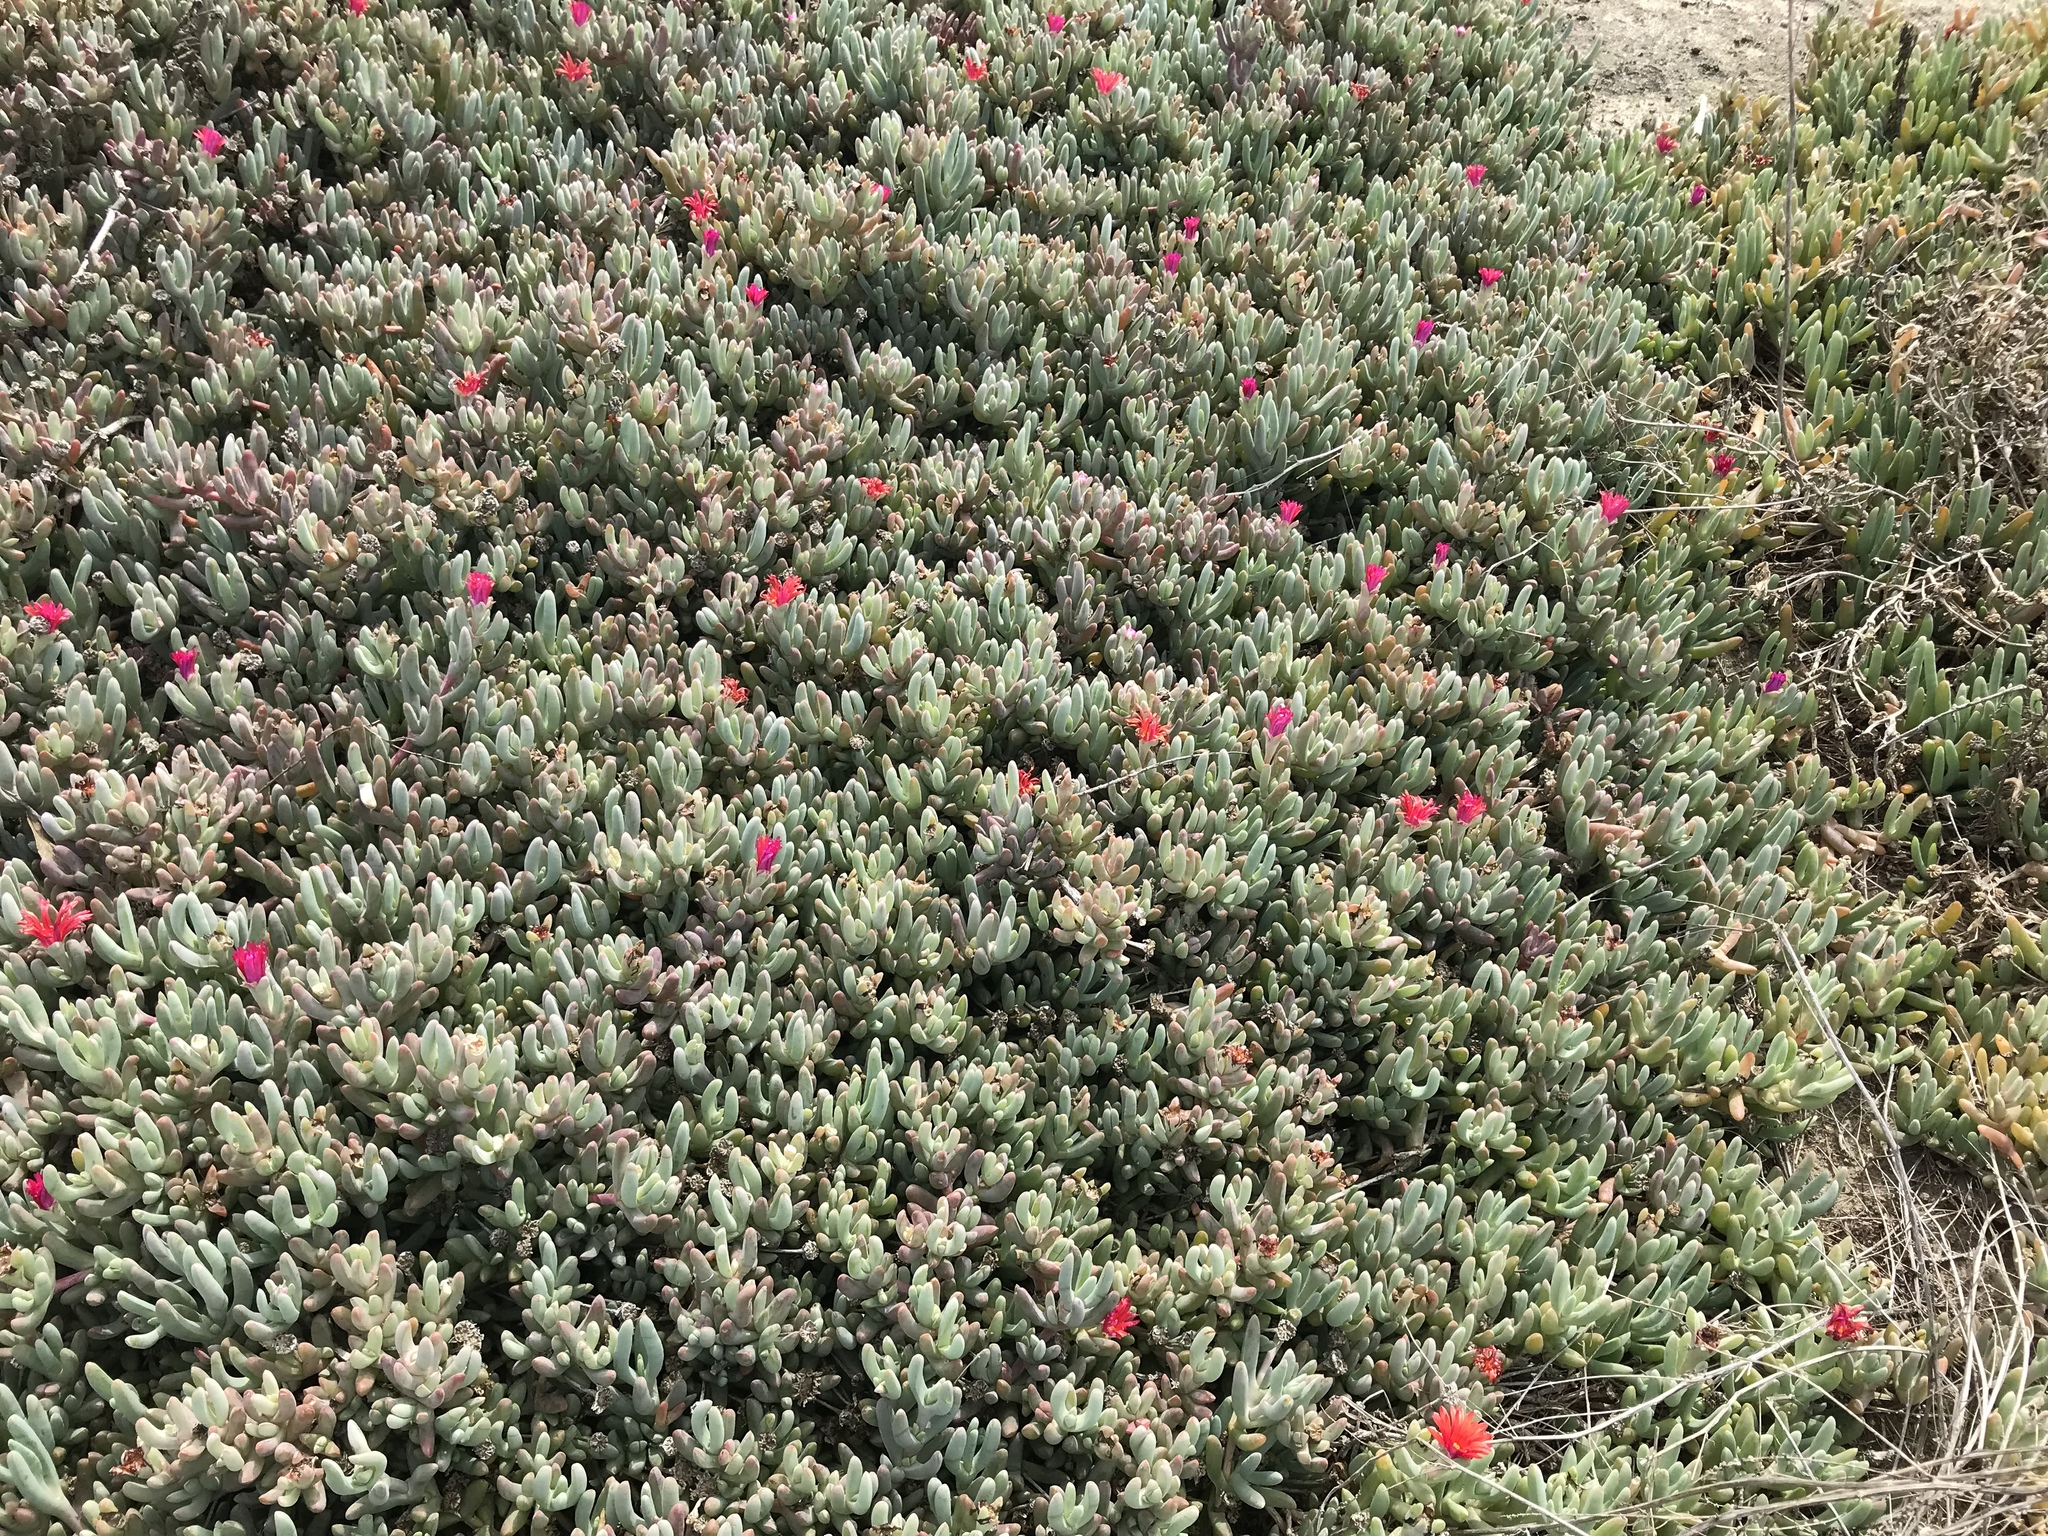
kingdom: Plantae
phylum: Tracheophyta
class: Magnoliopsida
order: Caryophyllales
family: Aizoaceae
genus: Malephora
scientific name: Malephora crocea
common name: Coppery mesemb
